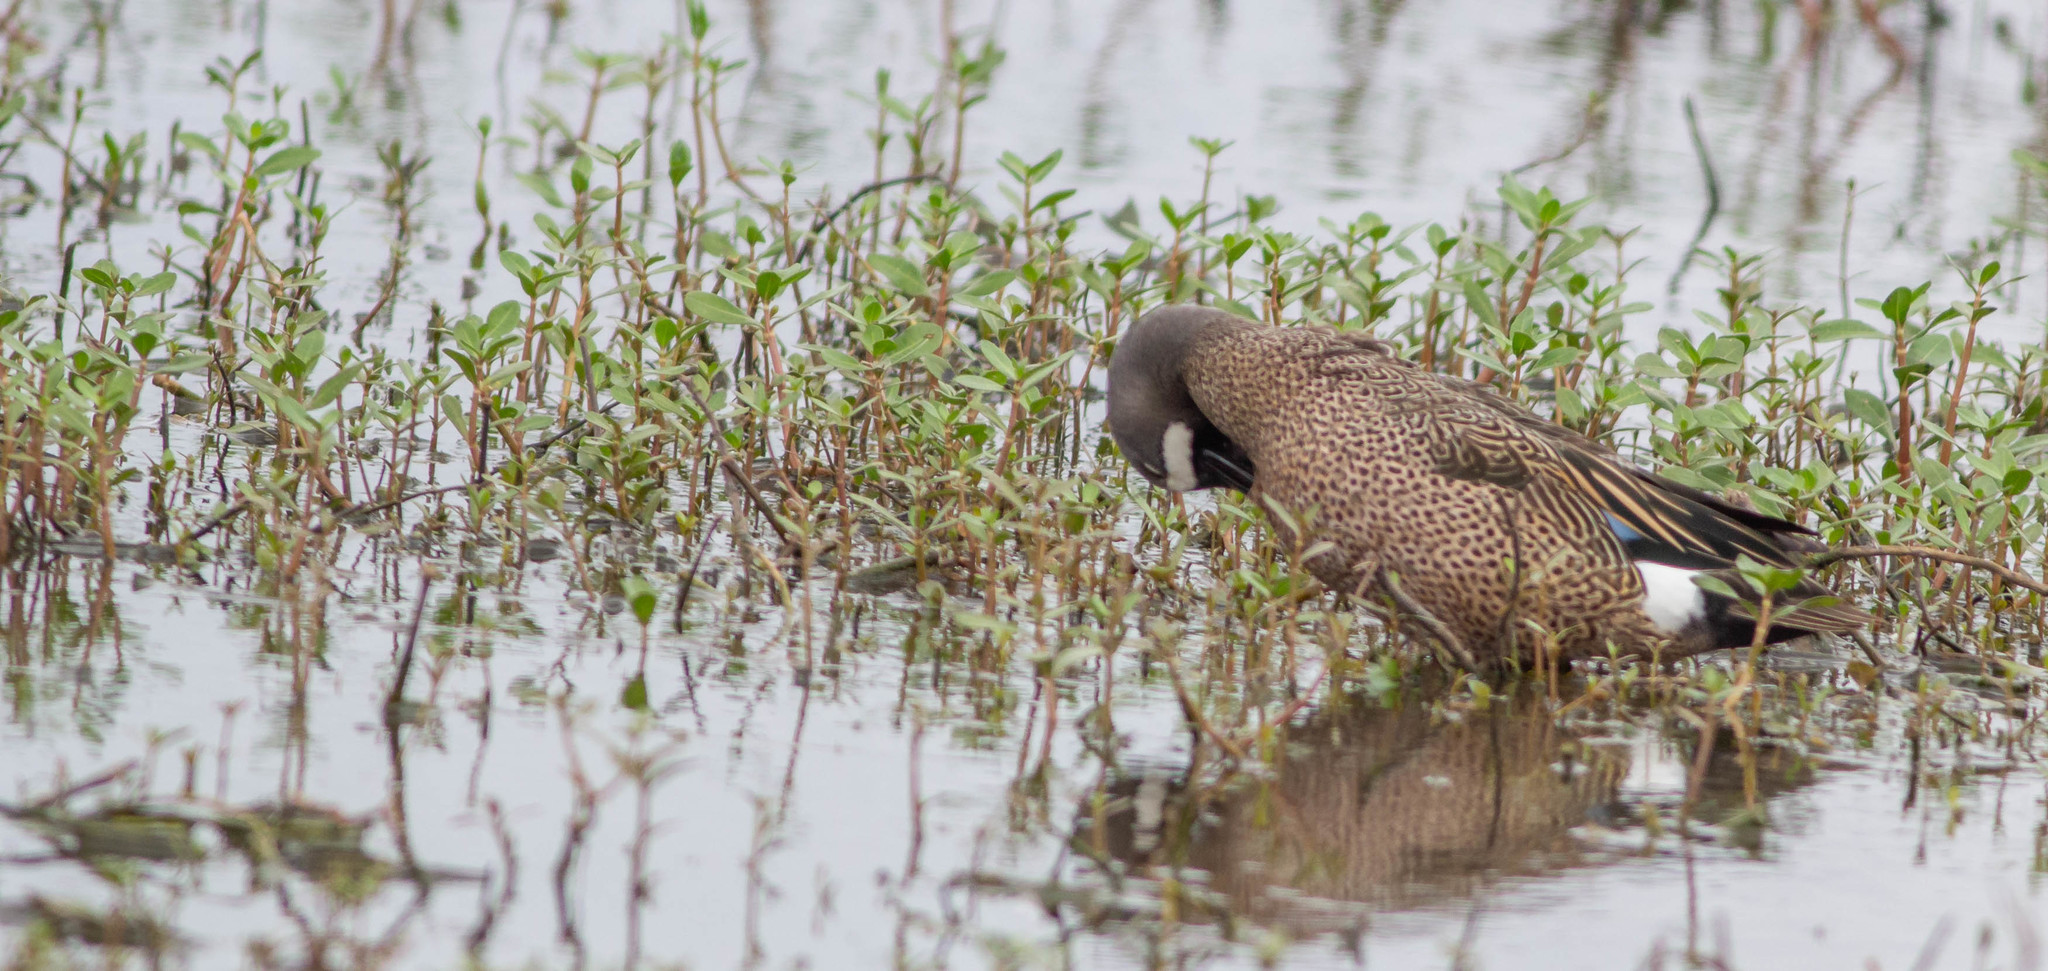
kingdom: Animalia
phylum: Chordata
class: Aves
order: Anseriformes
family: Anatidae
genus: Spatula
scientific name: Spatula discors
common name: Blue-winged teal
